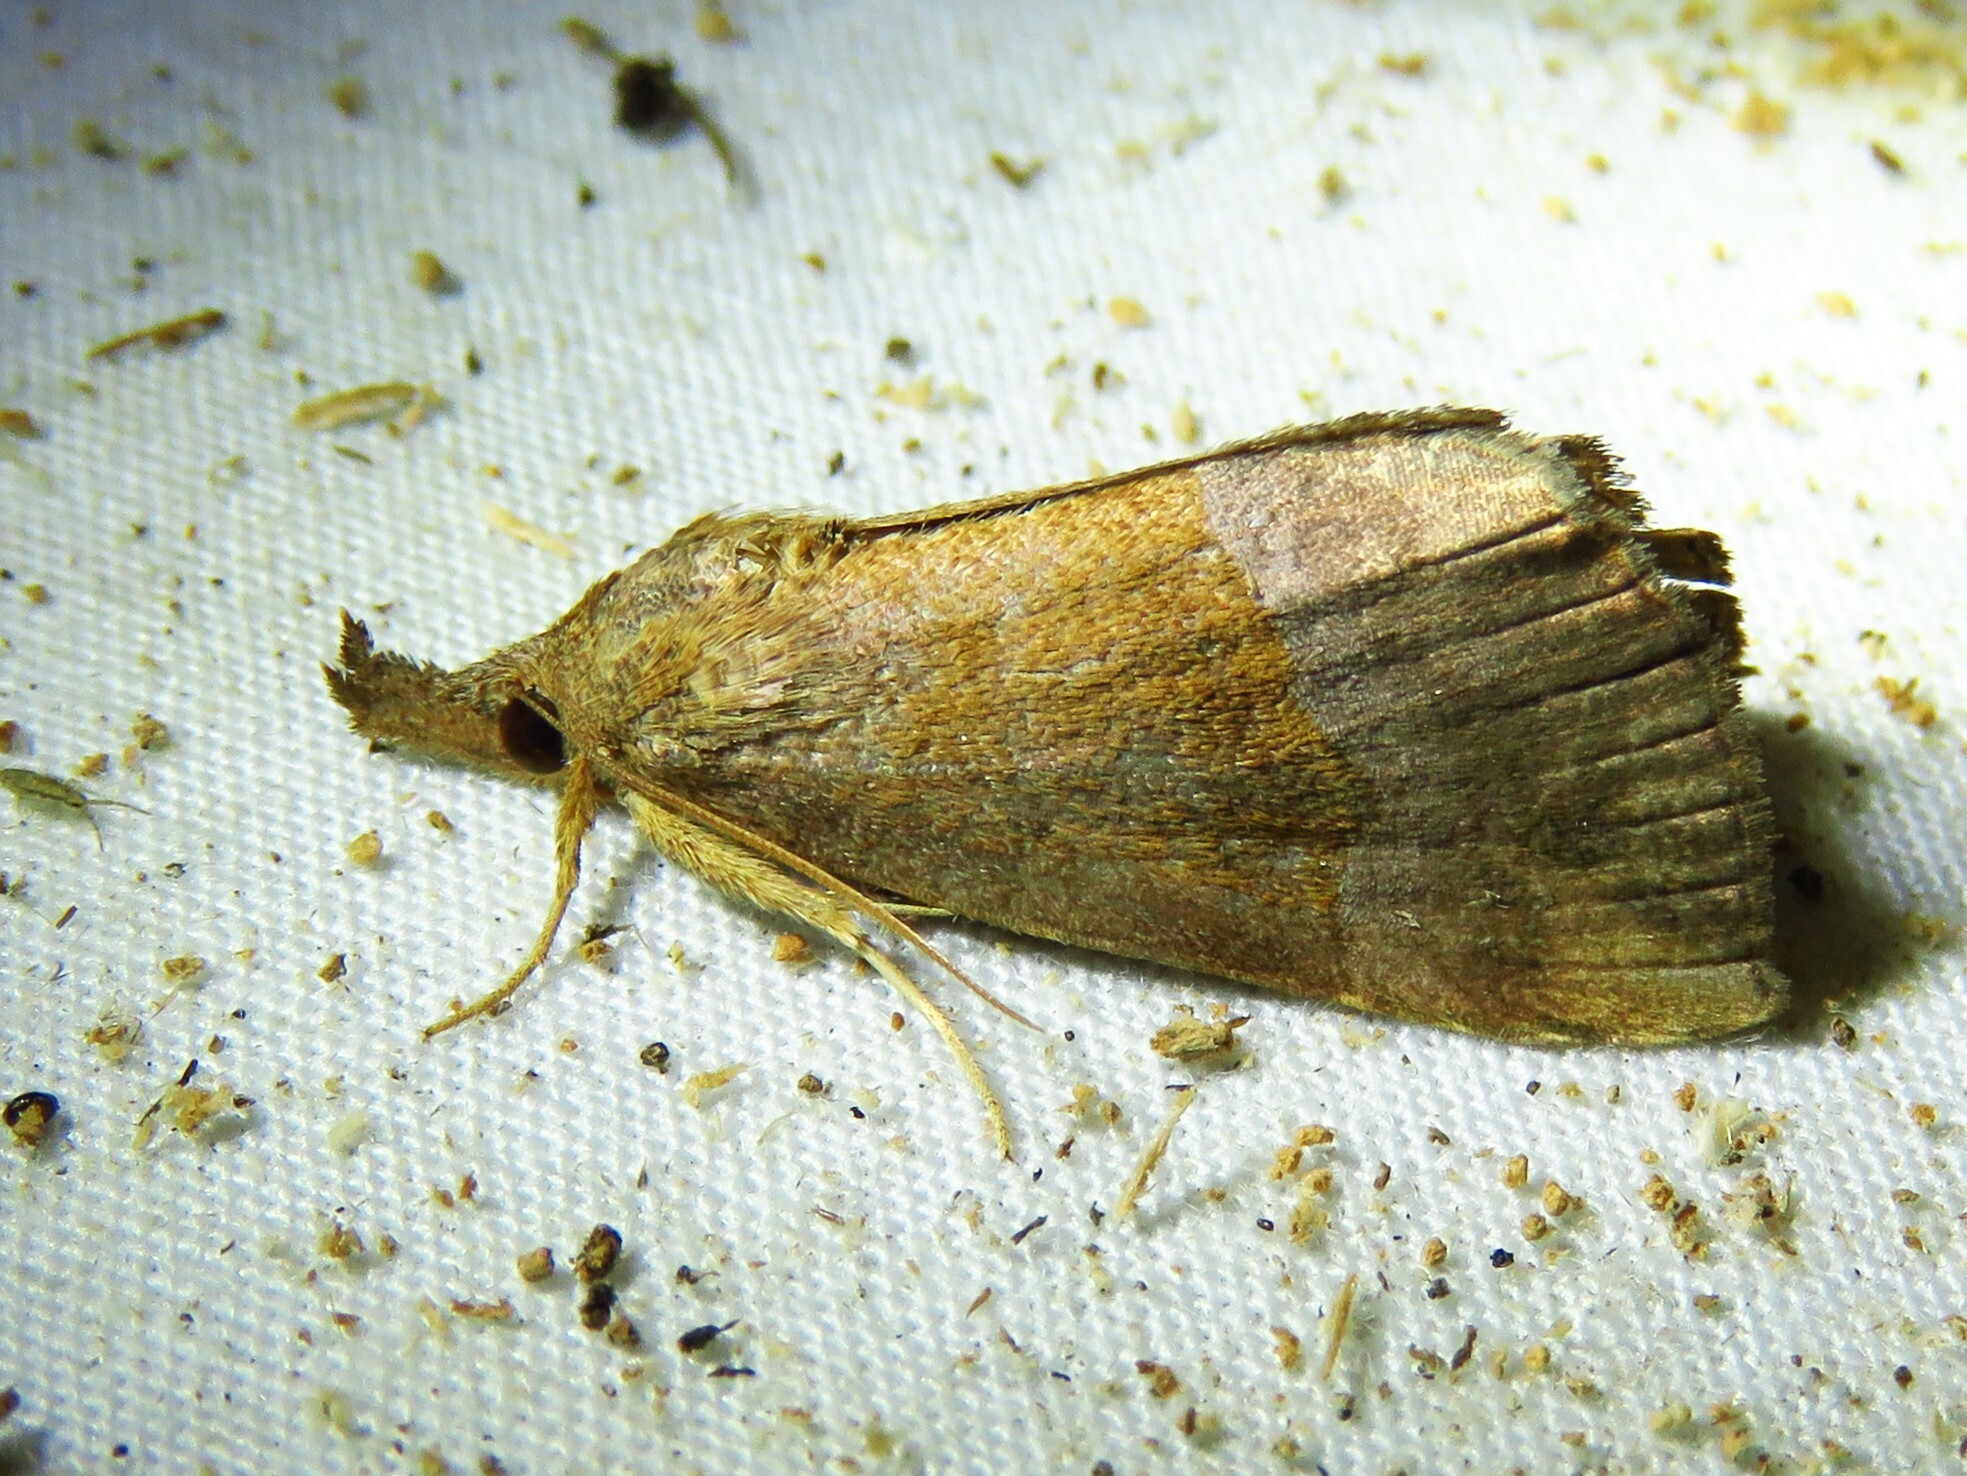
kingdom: Animalia
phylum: Arthropoda
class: Insecta
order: Lepidoptera
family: Erebidae
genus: Hypena
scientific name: Hypena madefactalis
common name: Gray-edged snout
